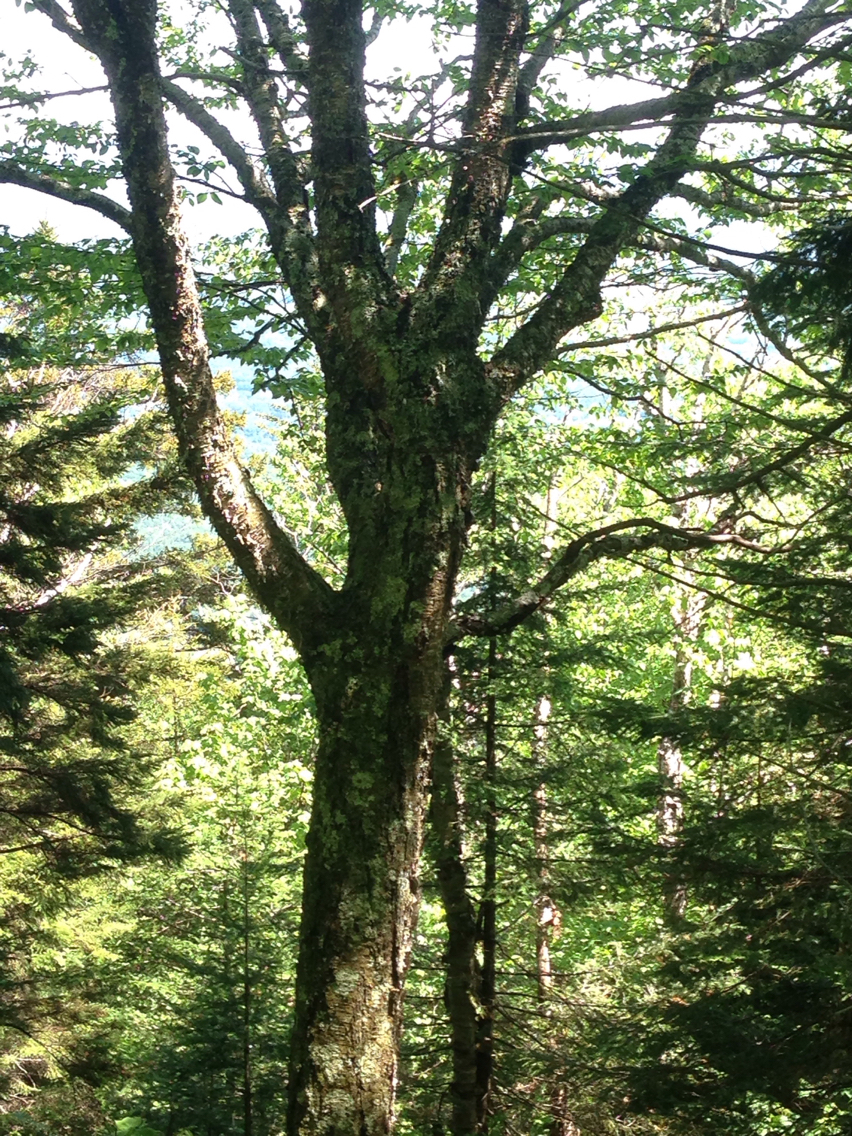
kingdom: Plantae
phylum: Tracheophyta
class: Magnoliopsida
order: Fagales
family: Betulaceae
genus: Betula
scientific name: Betula alleghaniensis
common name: Yellow birch
